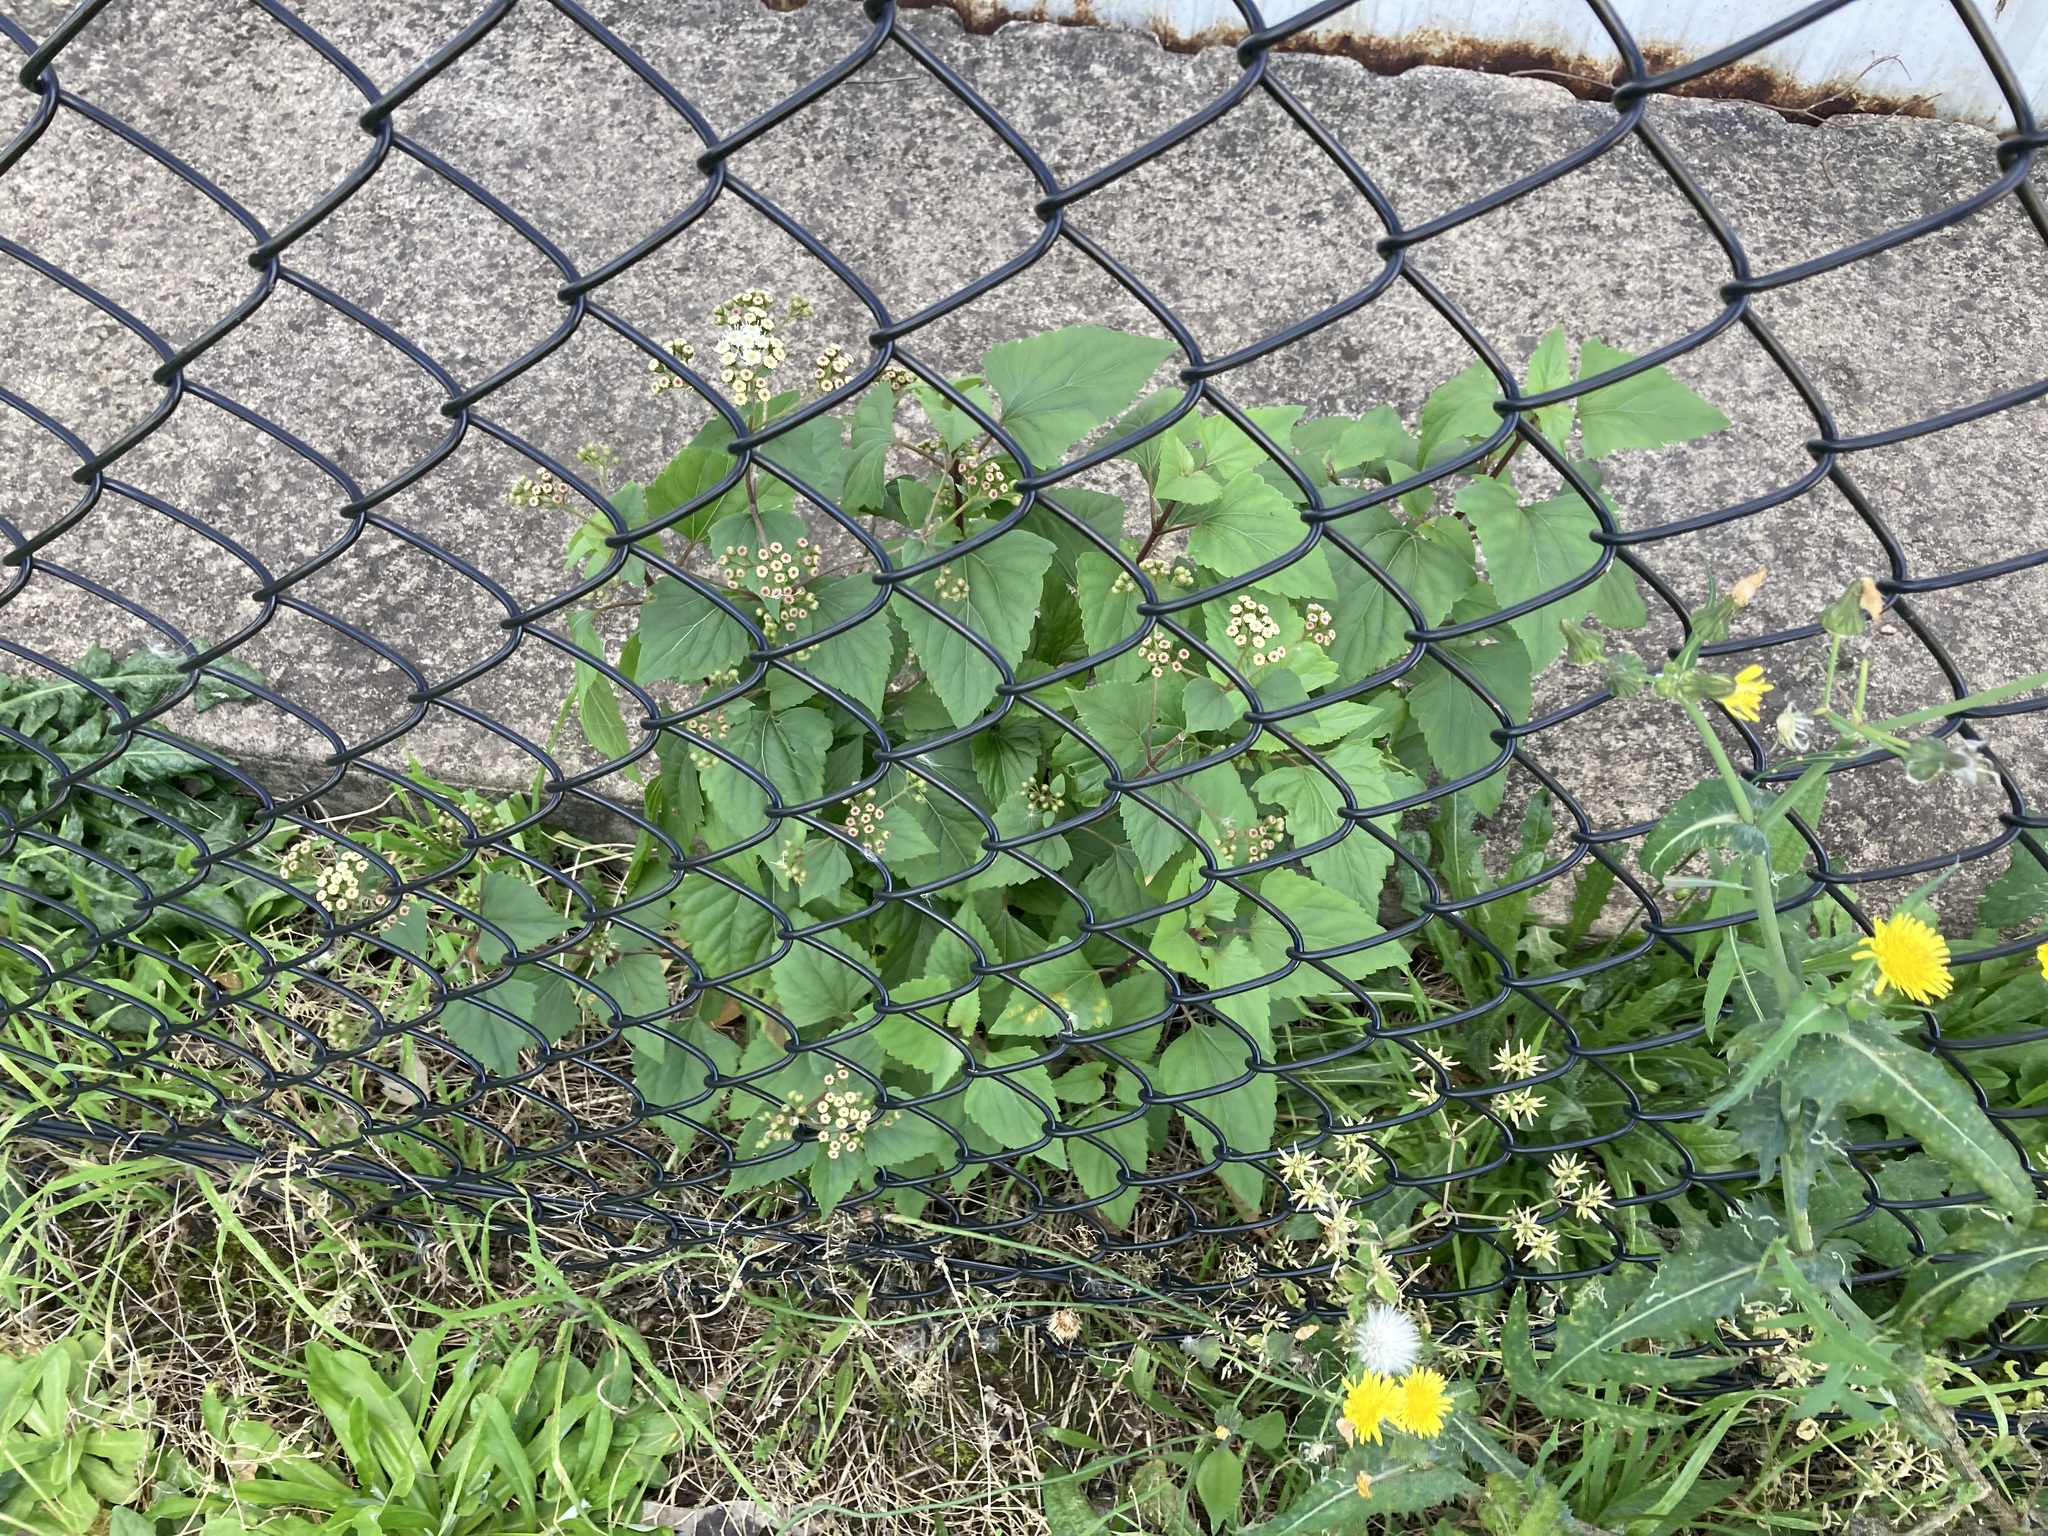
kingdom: Plantae
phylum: Tracheophyta
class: Magnoliopsida
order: Asterales
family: Asteraceae
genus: Ageratina
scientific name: Ageratina adenophora
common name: Sticky snakeroot
